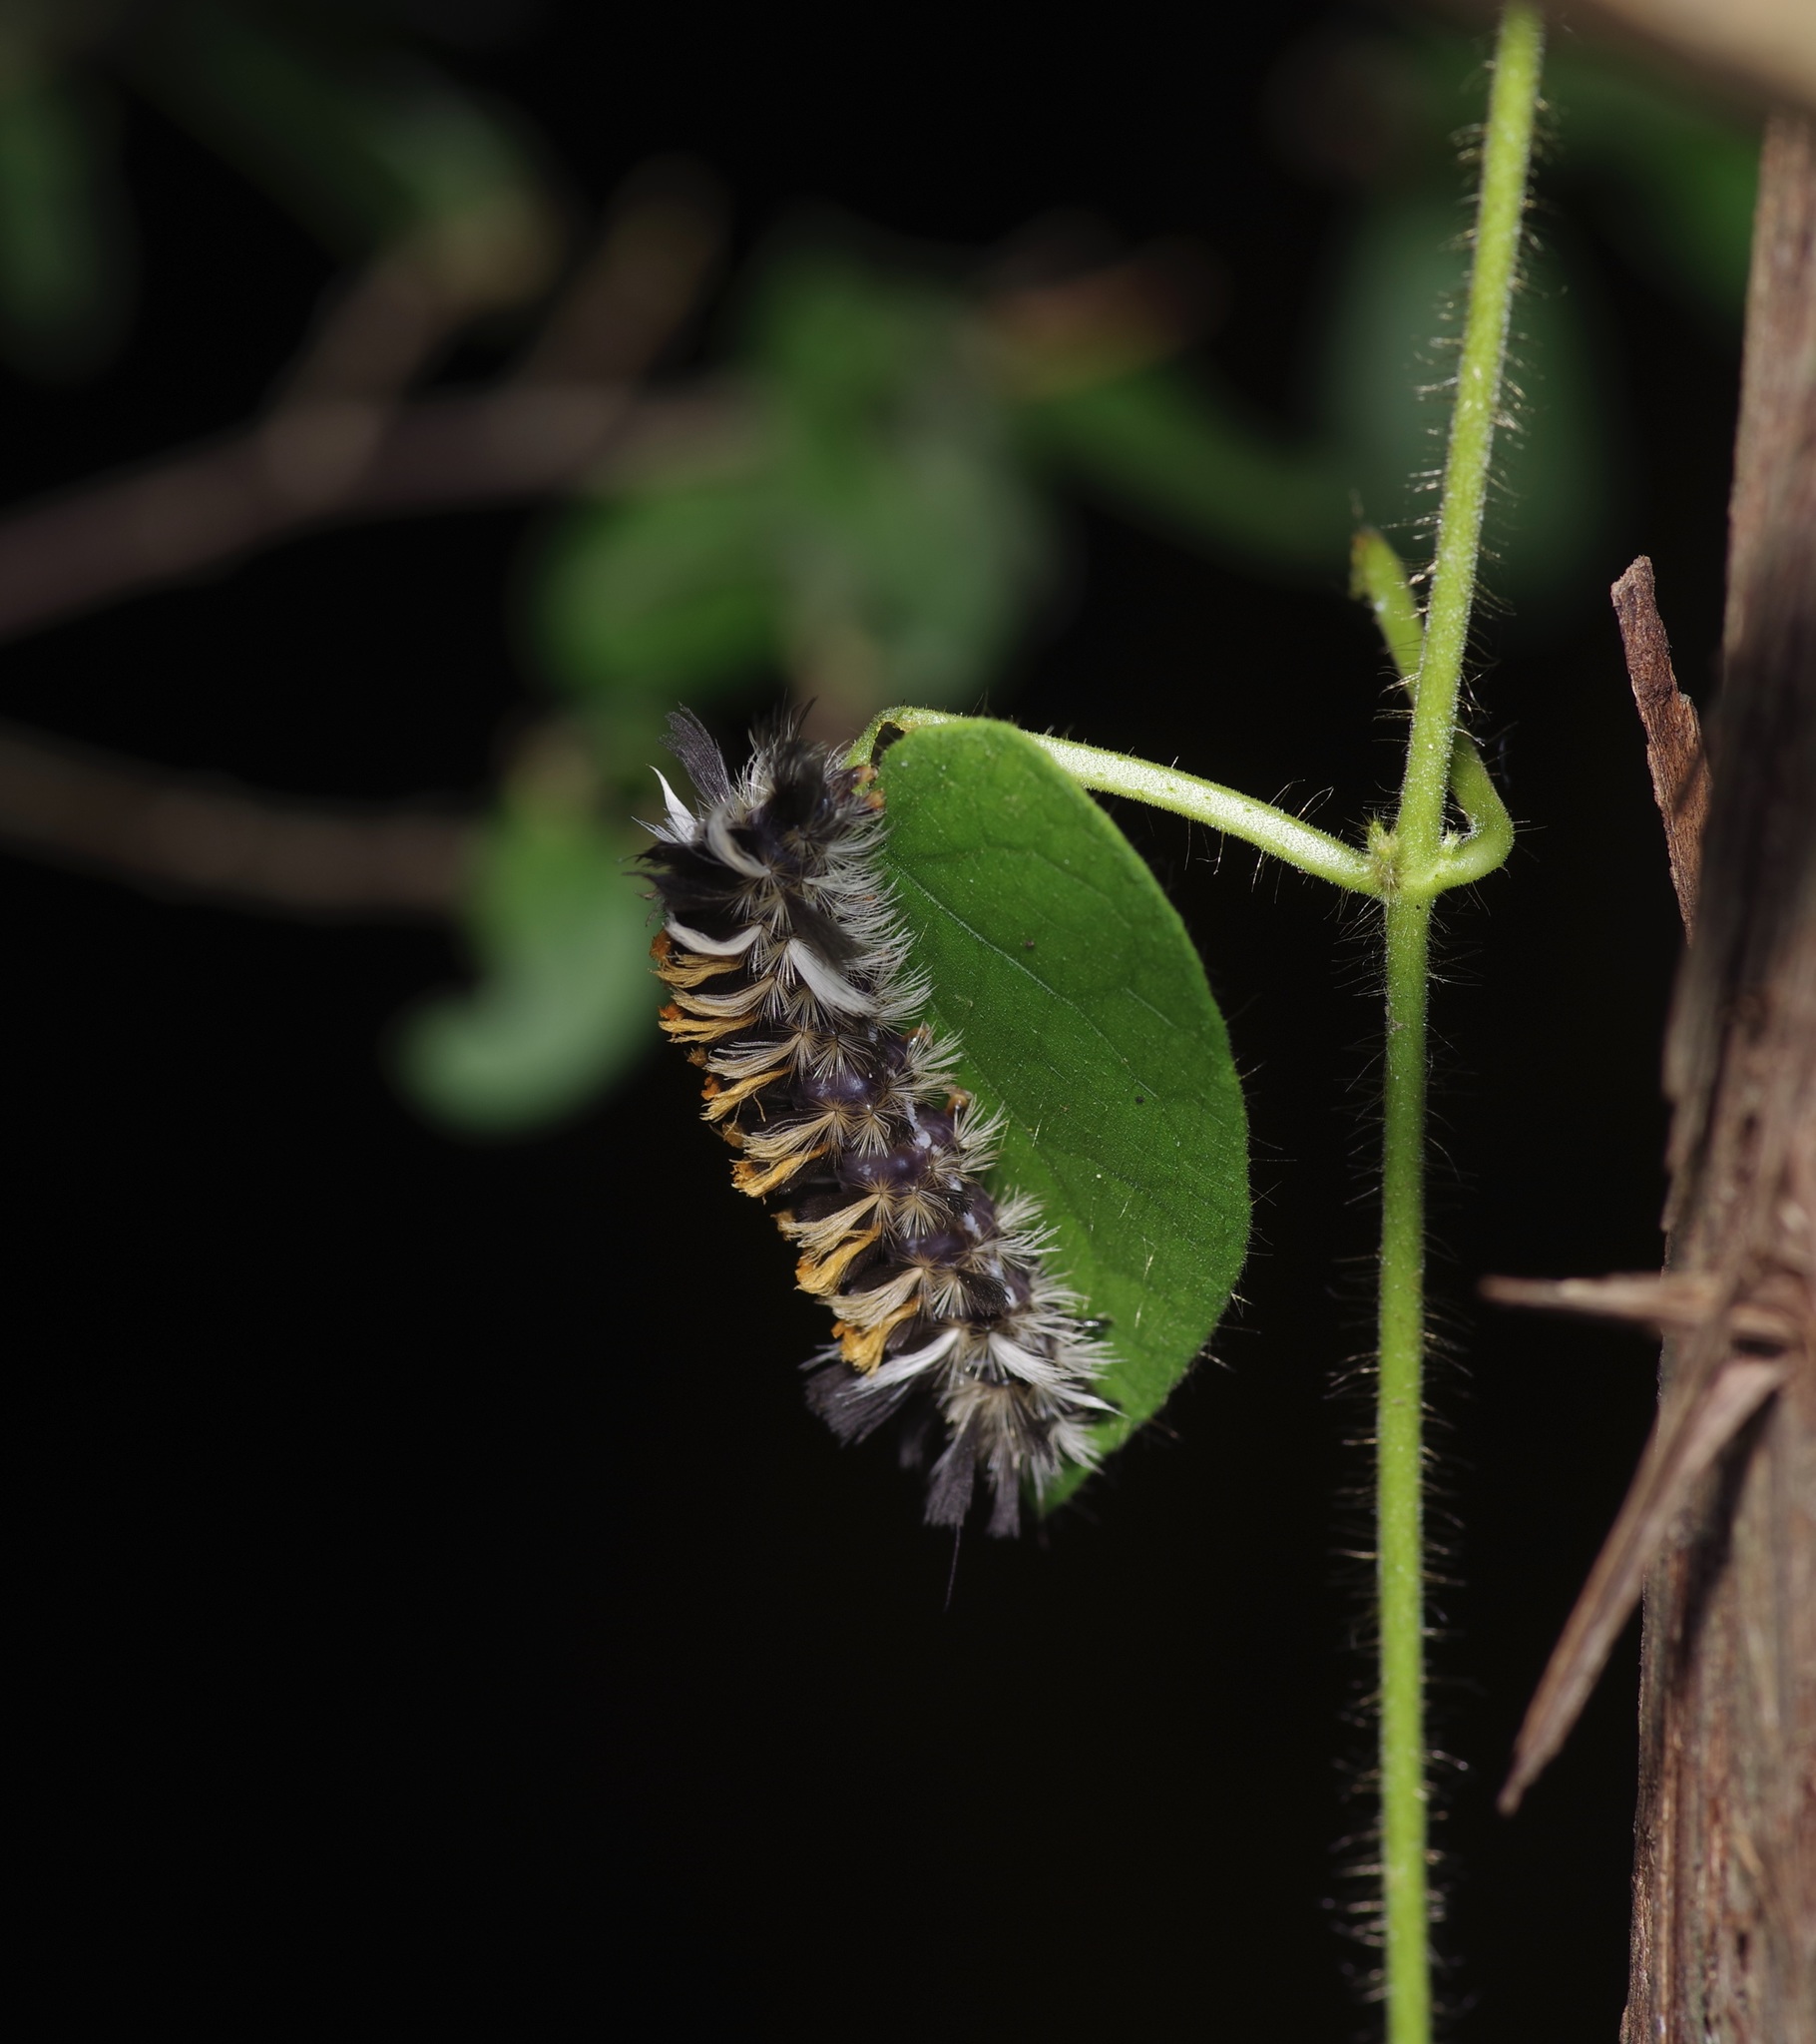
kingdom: Animalia
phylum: Arthropoda
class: Insecta
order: Lepidoptera
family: Erebidae
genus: Euchaetes
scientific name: Euchaetes egle
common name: Milkweed tussock moth
